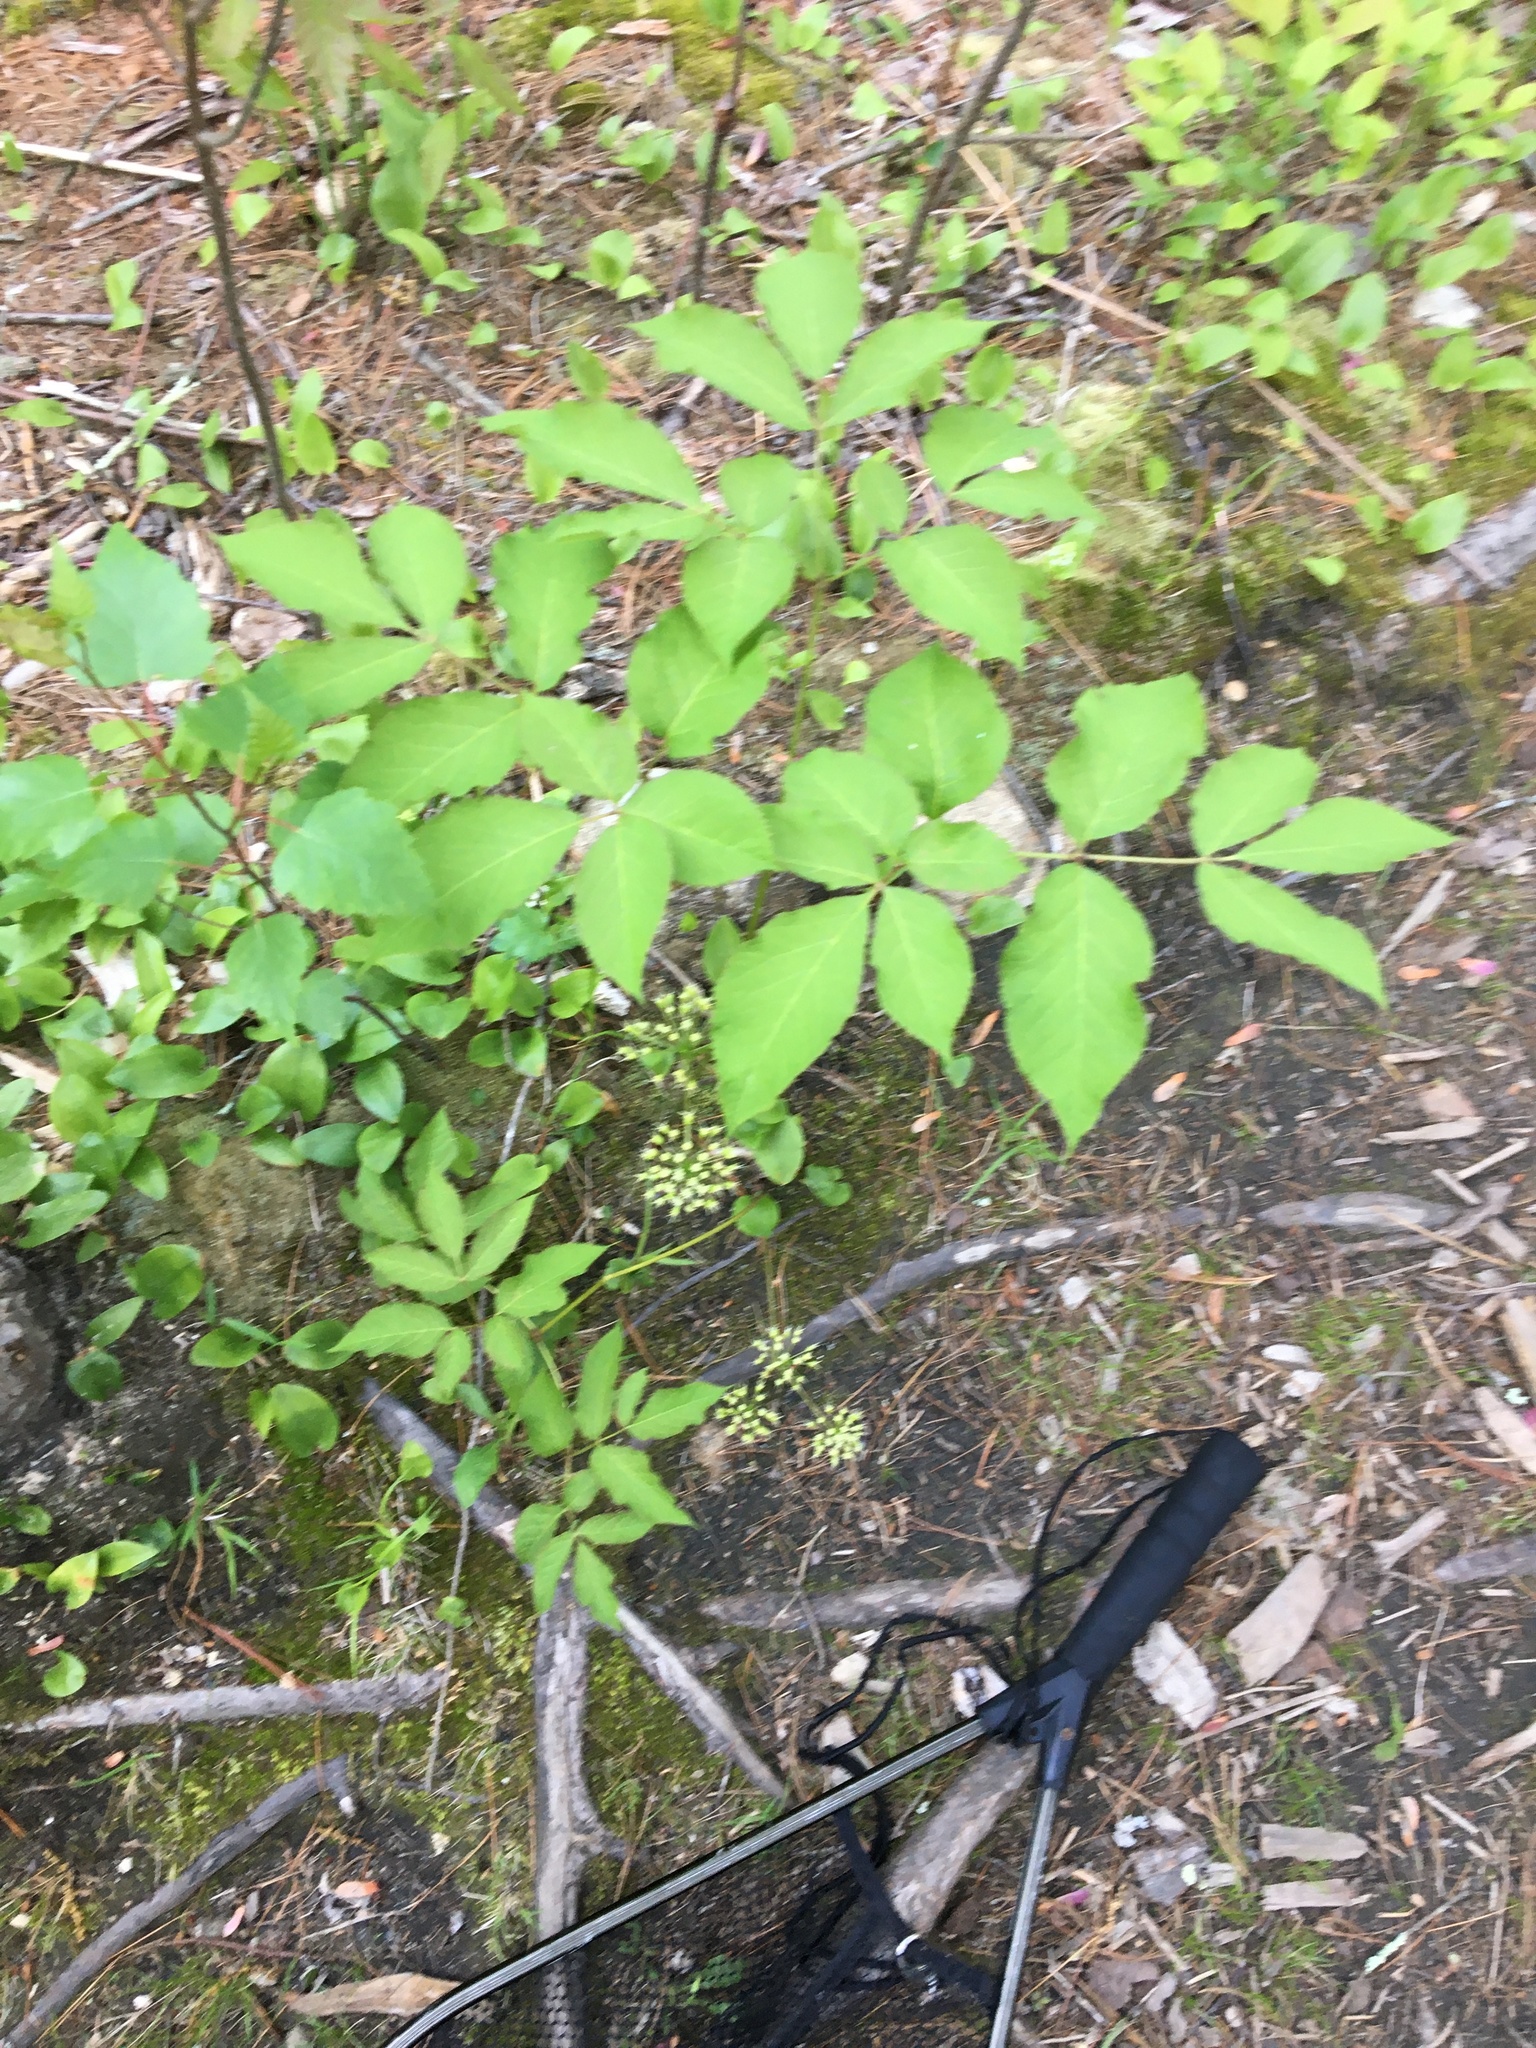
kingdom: Plantae
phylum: Tracheophyta
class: Magnoliopsida
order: Apiales
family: Araliaceae
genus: Aralia
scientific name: Aralia nudicaulis
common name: Wild sarsaparilla
